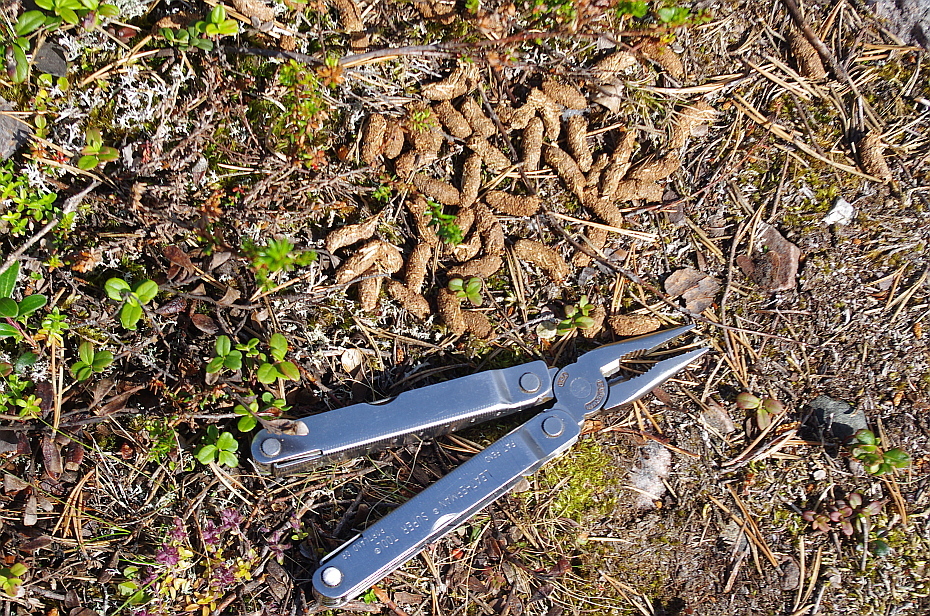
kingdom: Animalia
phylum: Chordata
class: Aves
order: Galliformes
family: Phasianidae
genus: Lyrurus
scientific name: Lyrurus tetrix
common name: Black grouse
